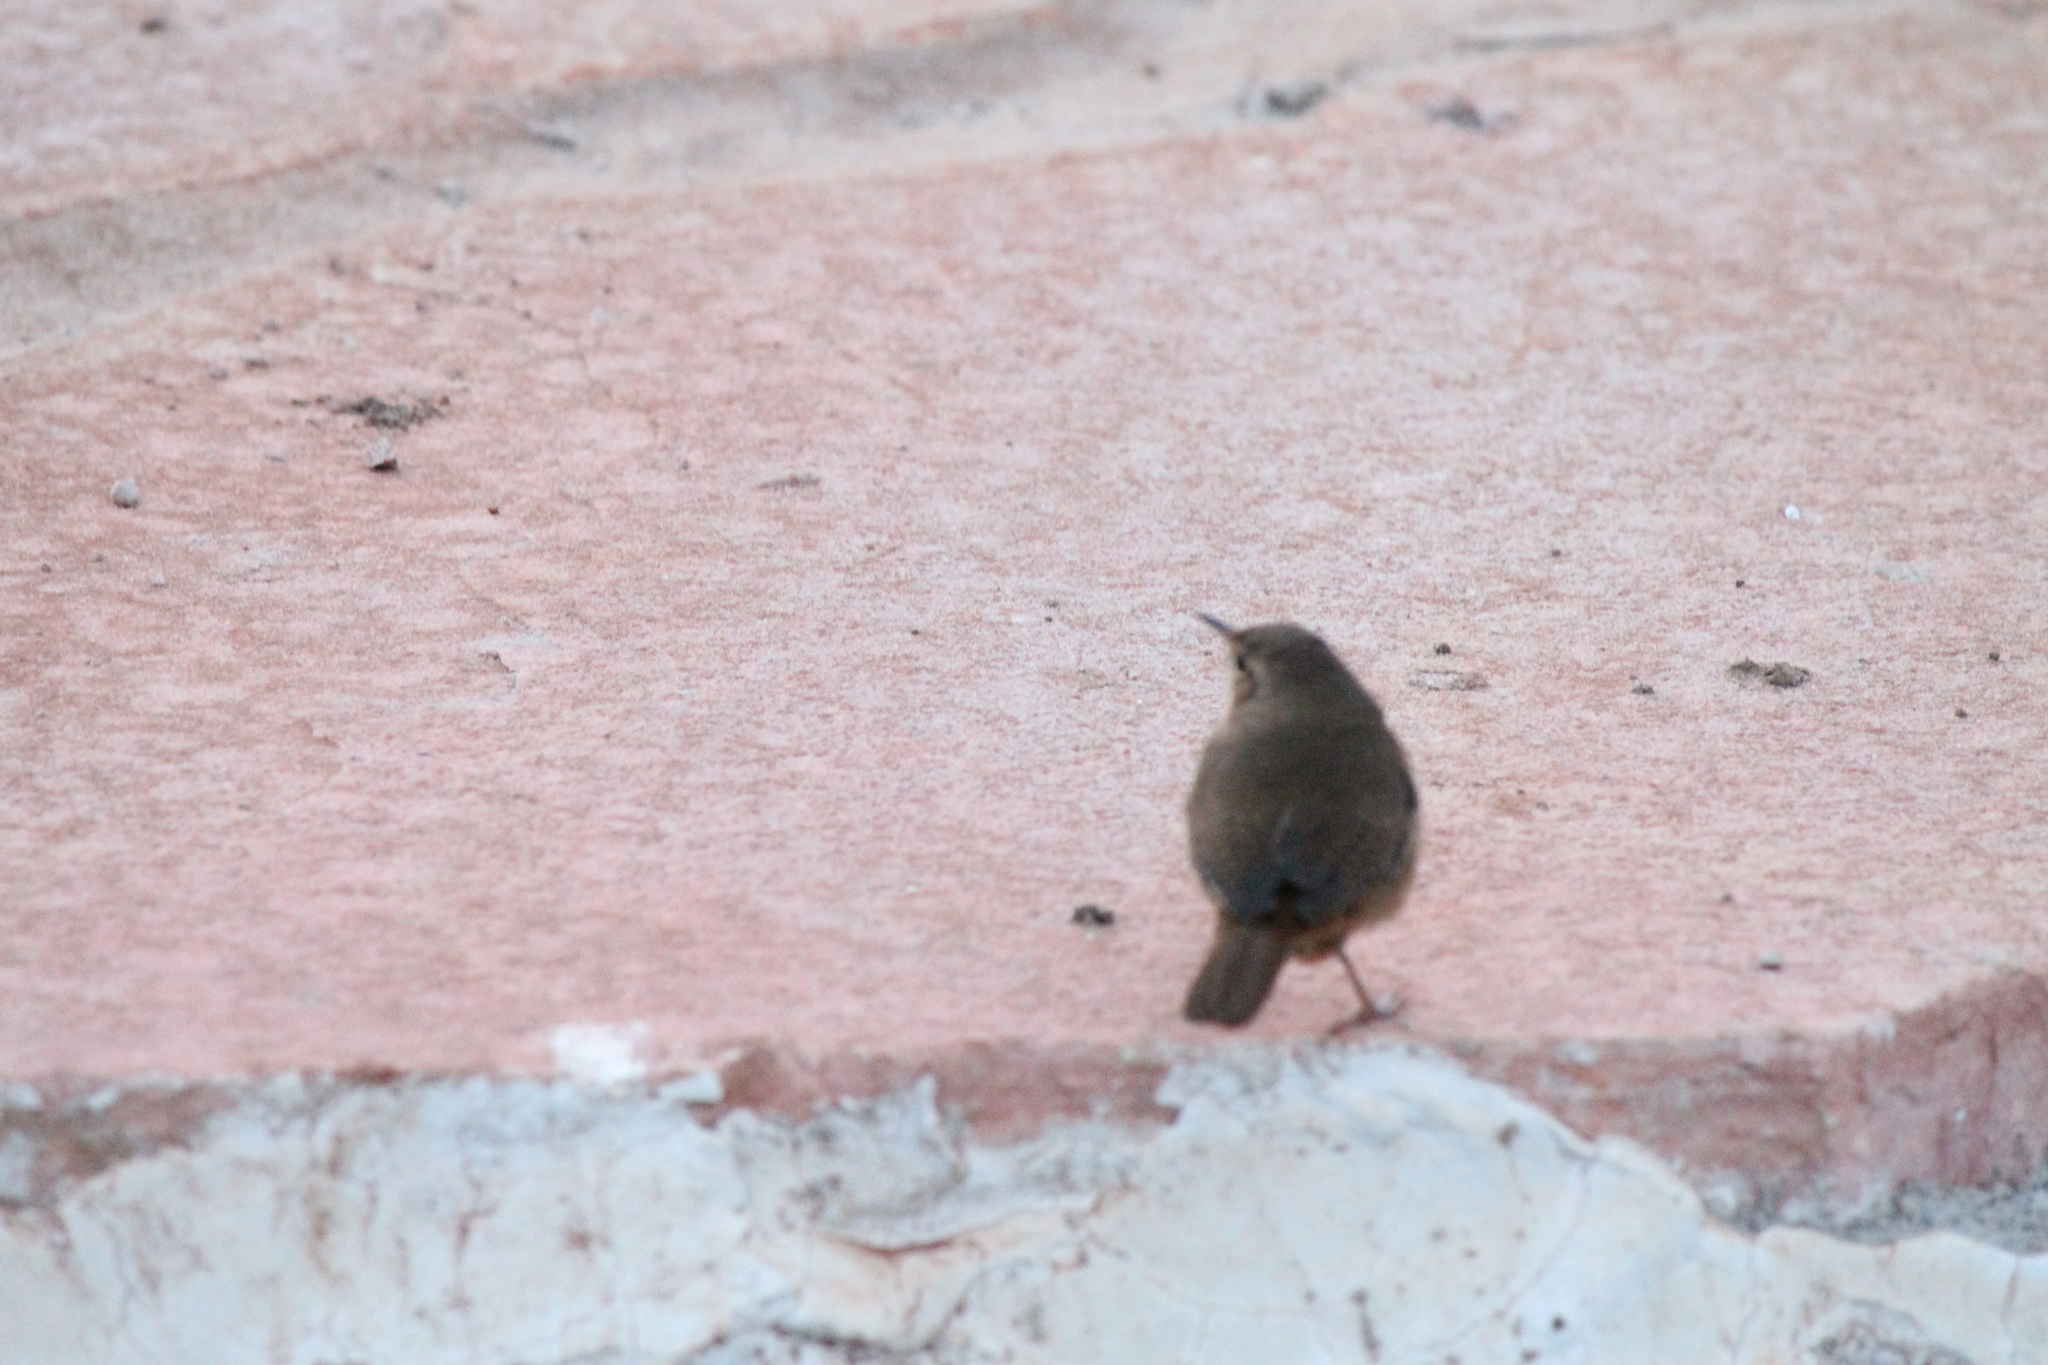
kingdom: Animalia
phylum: Chordata
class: Aves
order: Passeriformes
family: Troglodytidae
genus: Troglodytes
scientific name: Troglodytes aedon
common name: House wren
